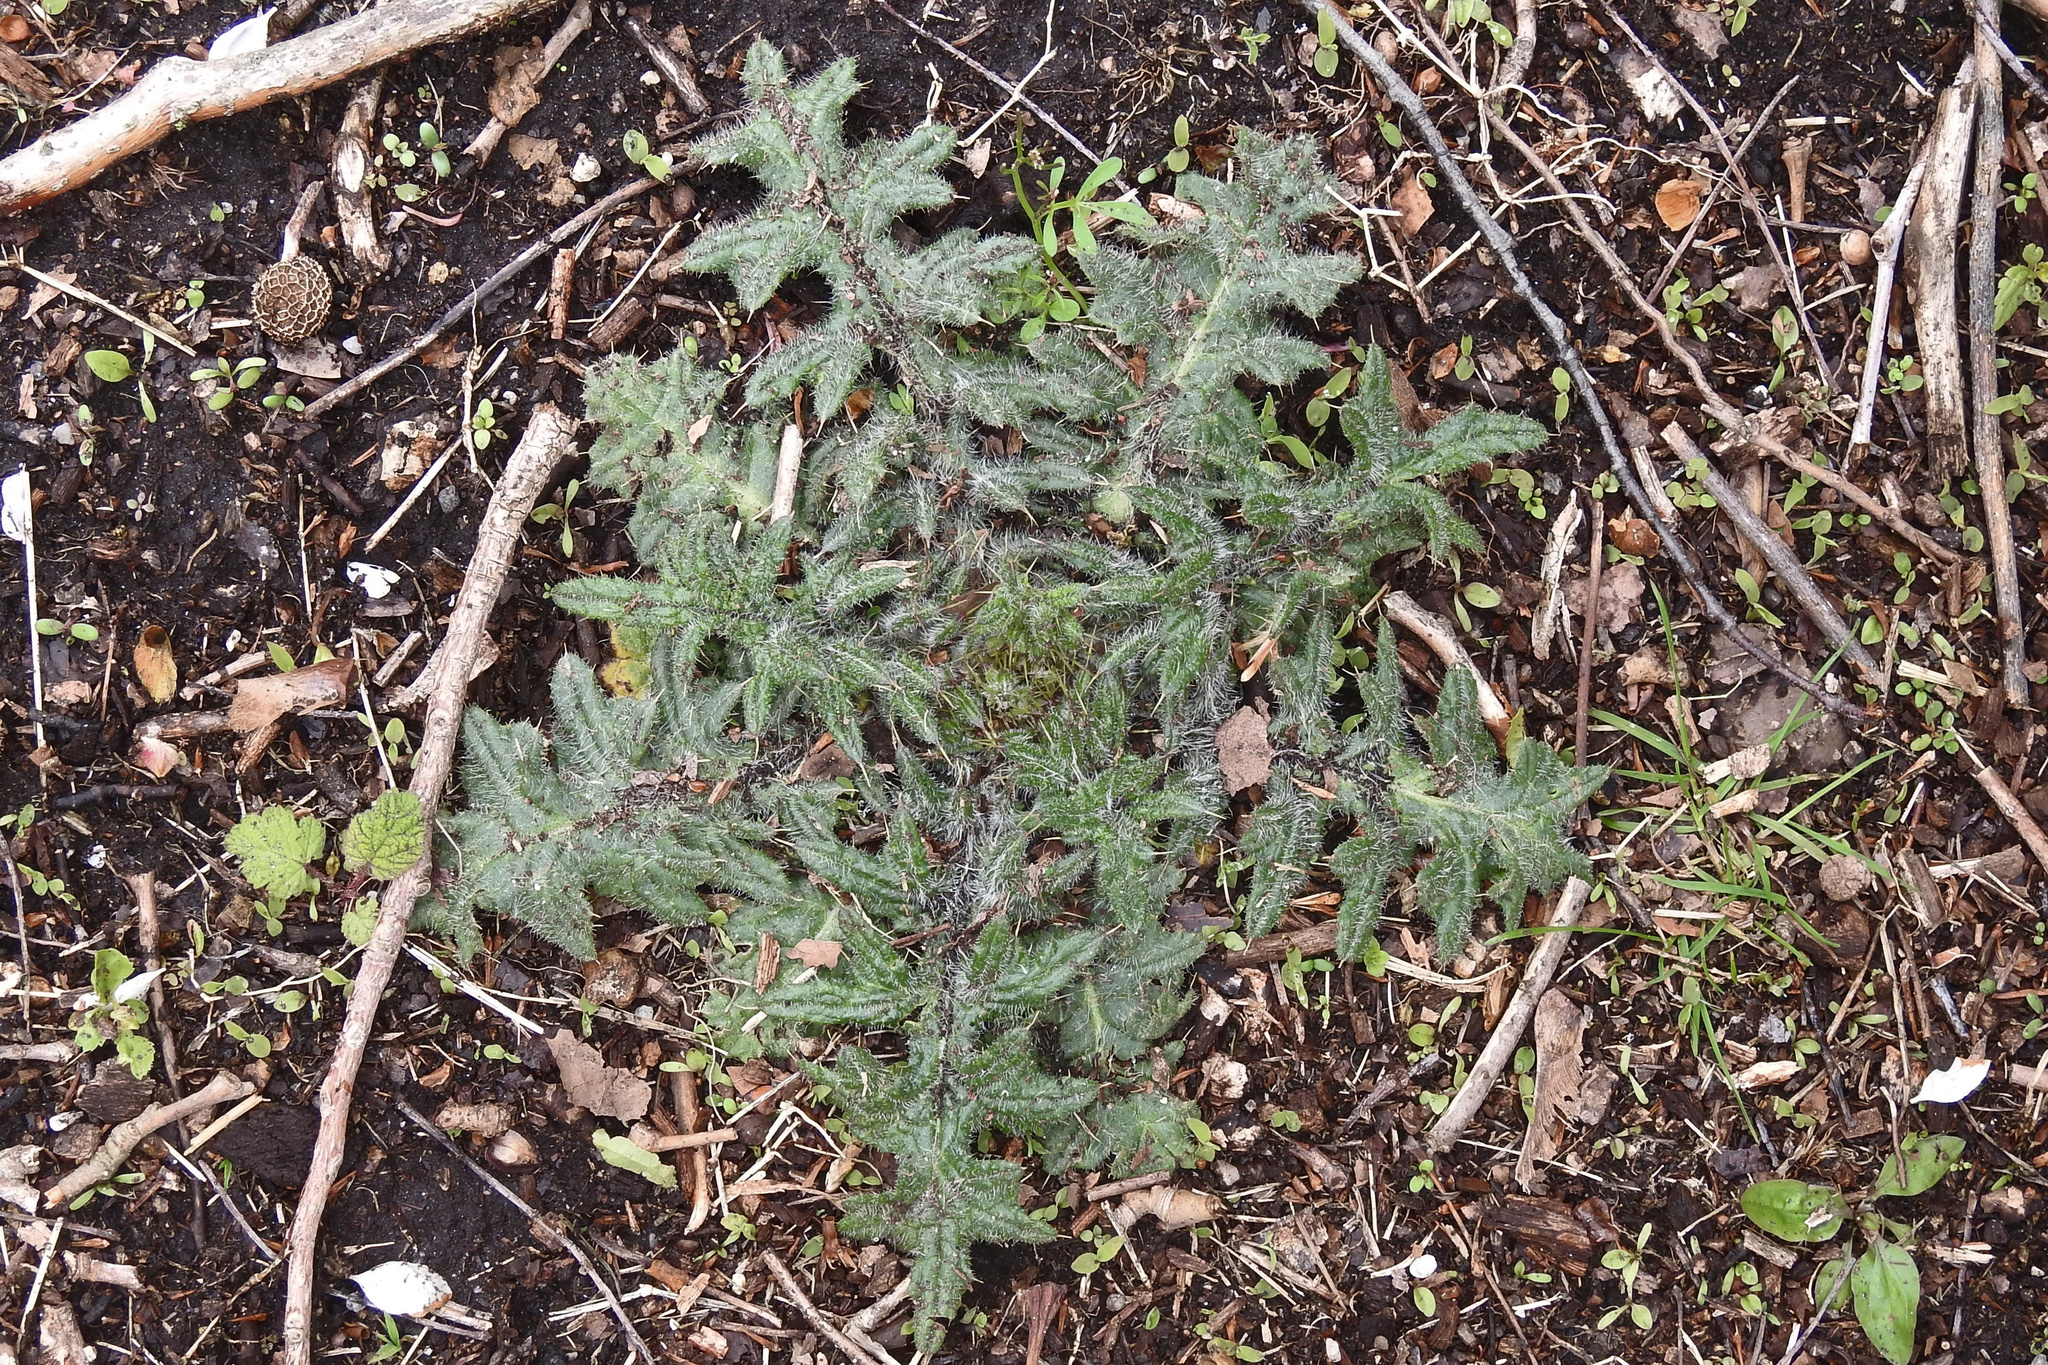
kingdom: Plantae
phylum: Tracheophyta
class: Magnoliopsida
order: Asterales
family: Asteraceae
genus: Cirsium
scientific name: Cirsium vulgare
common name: Bull thistle
